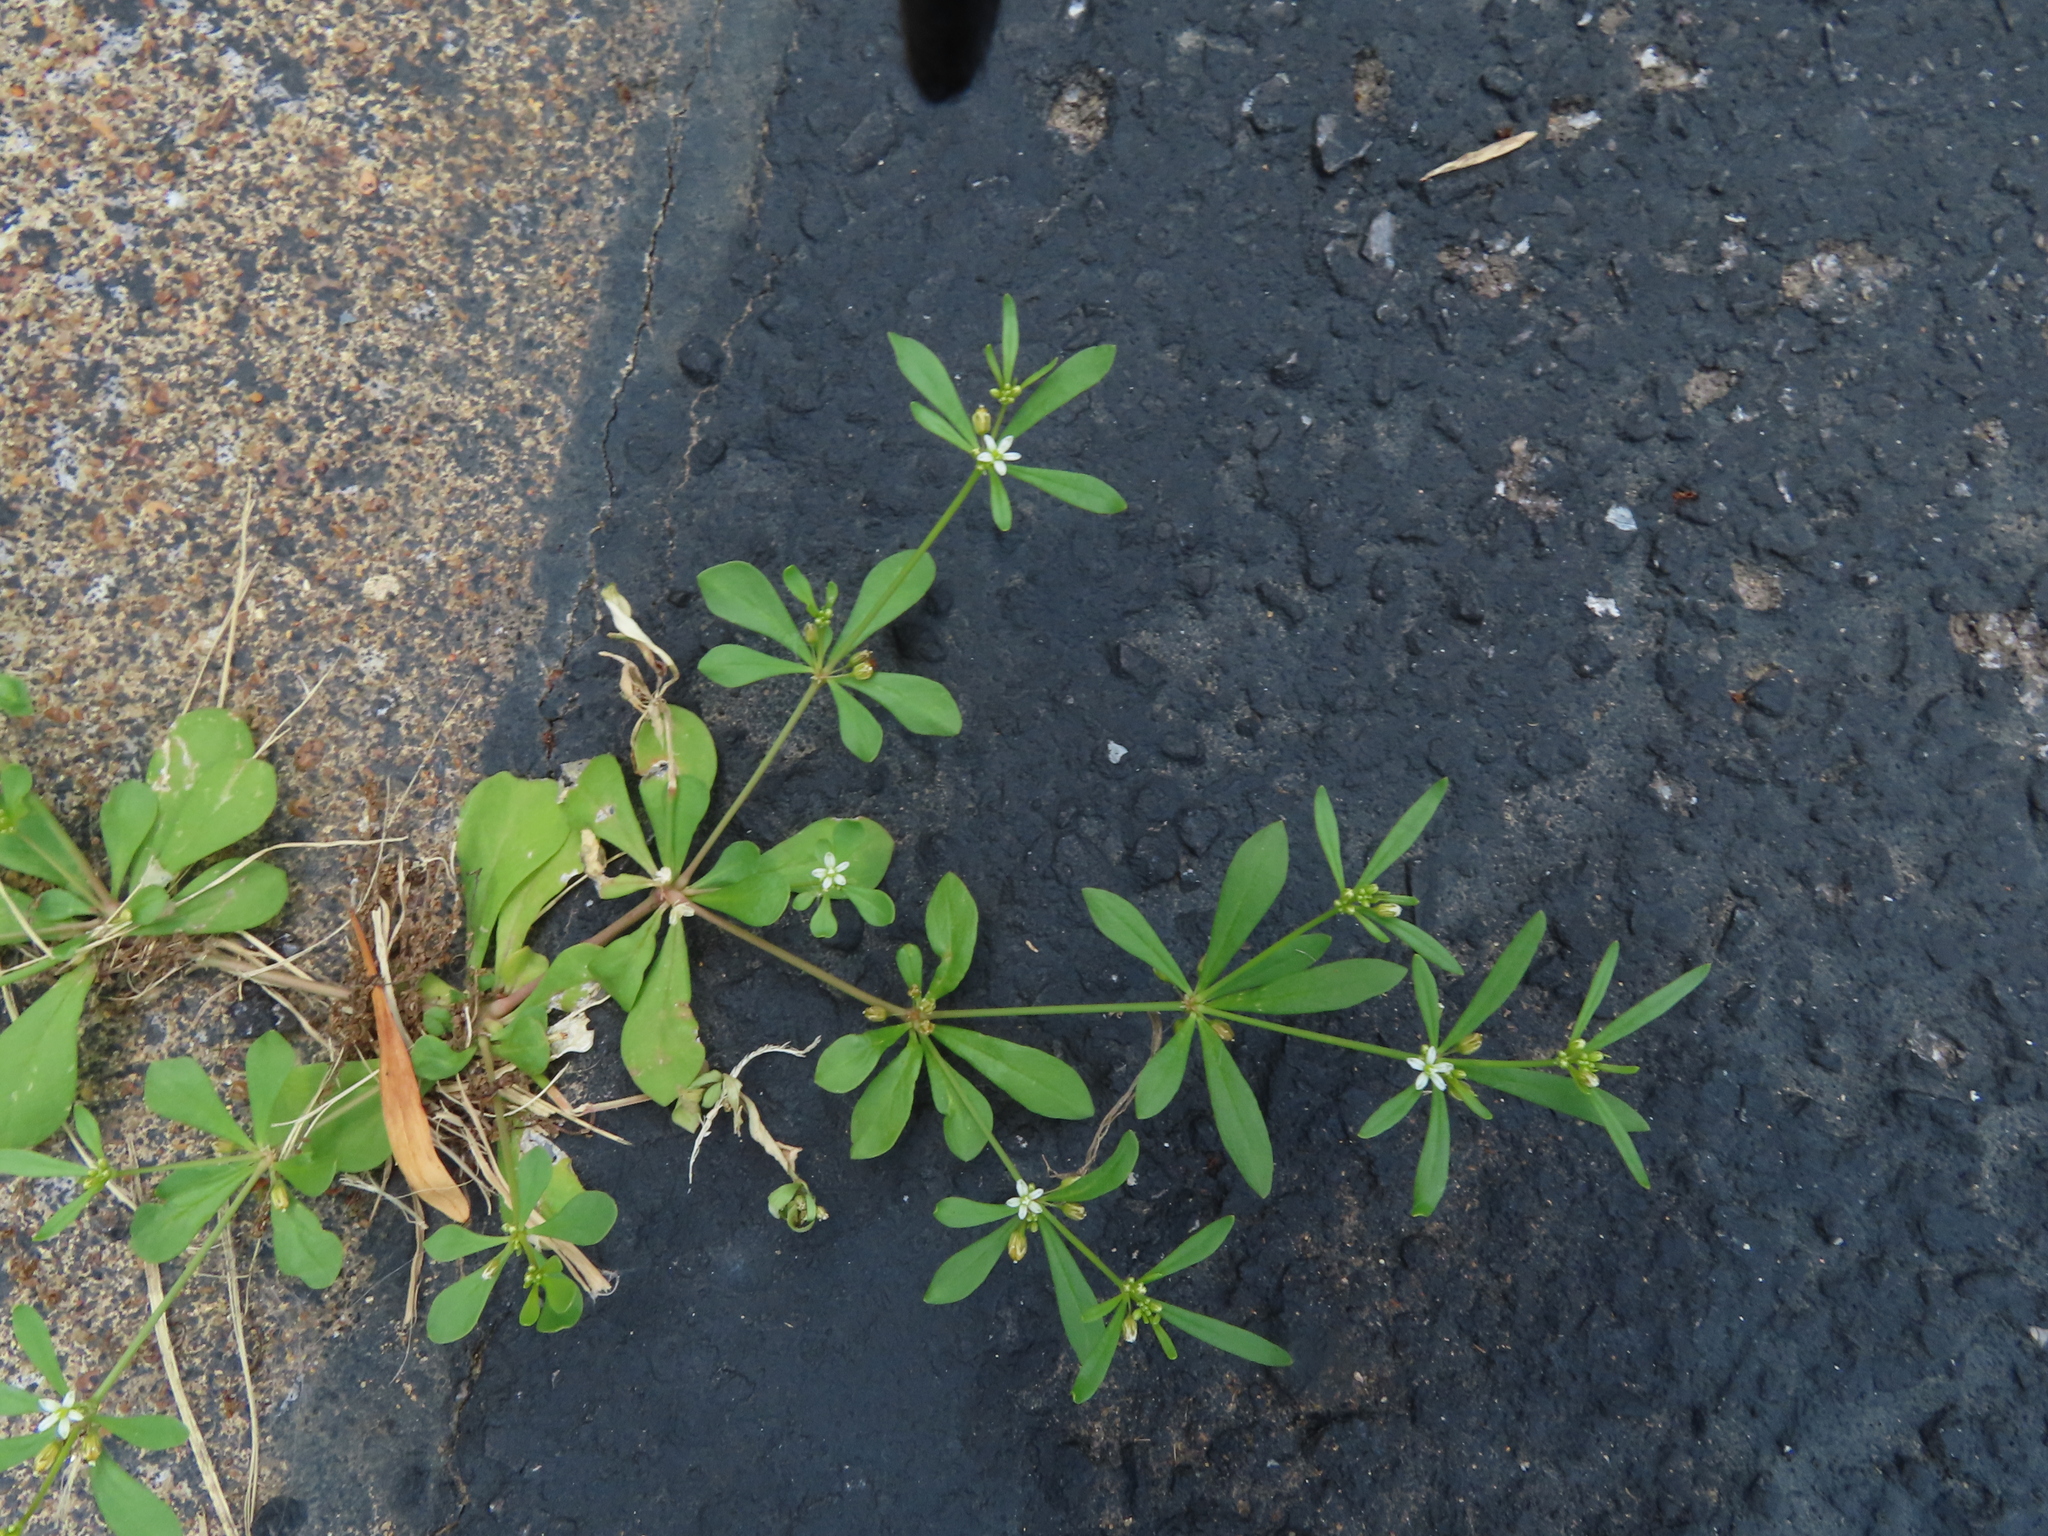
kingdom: Plantae
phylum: Tracheophyta
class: Magnoliopsida
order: Caryophyllales
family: Molluginaceae
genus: Mollugo
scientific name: Mollugo verticillata
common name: Green carpetweed
